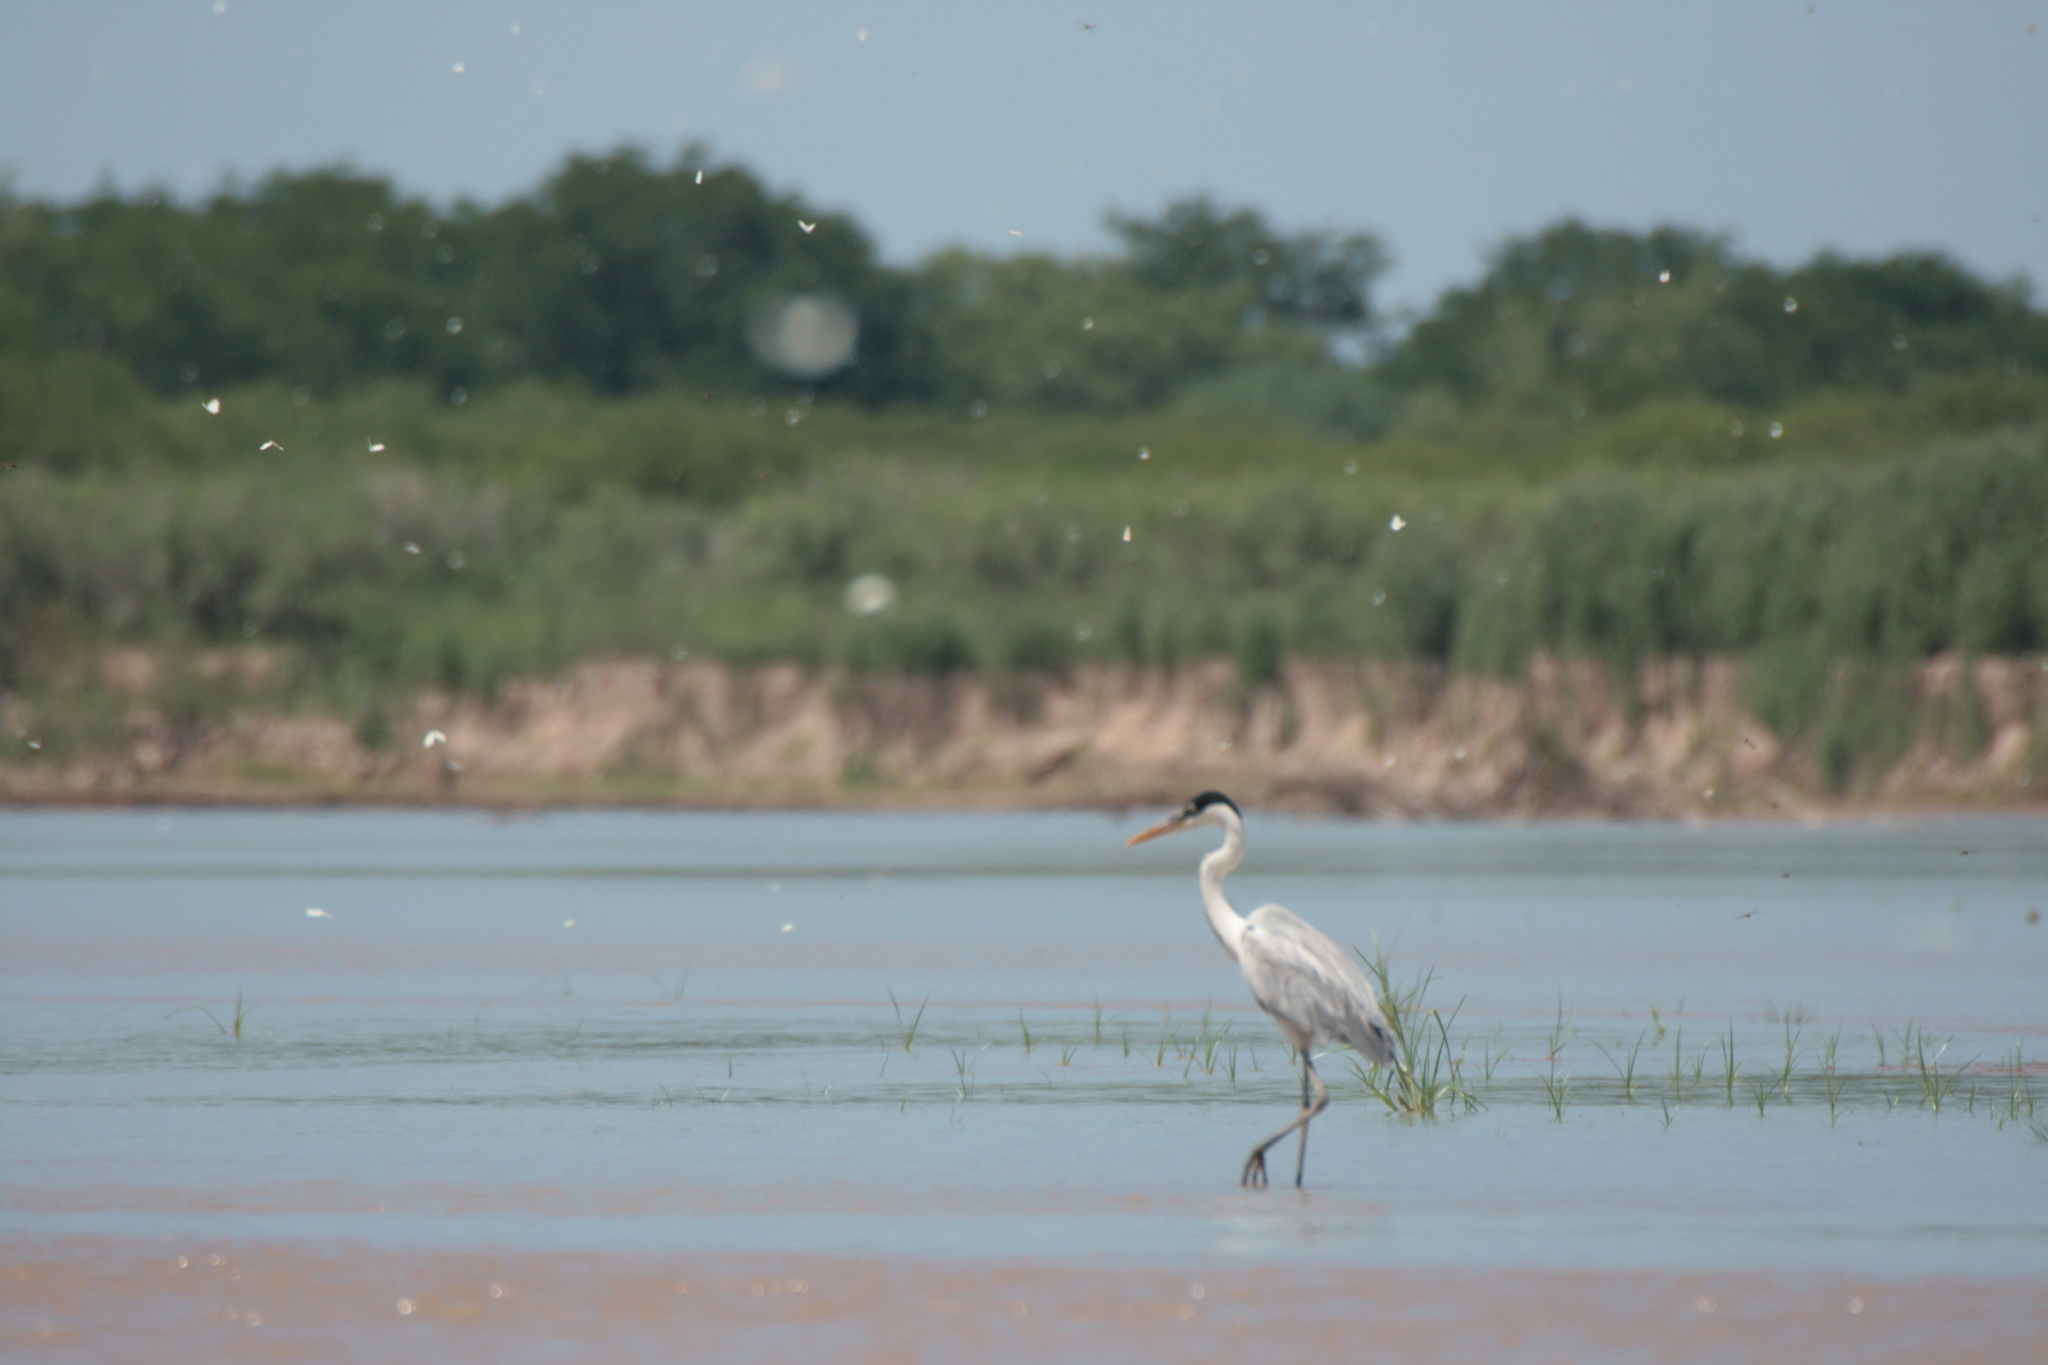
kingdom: Animalia
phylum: Chordata
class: Aves
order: Pelecaniformes
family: Ardeidae
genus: Ardea
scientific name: Ardea cocoi
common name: Cocoi heron
